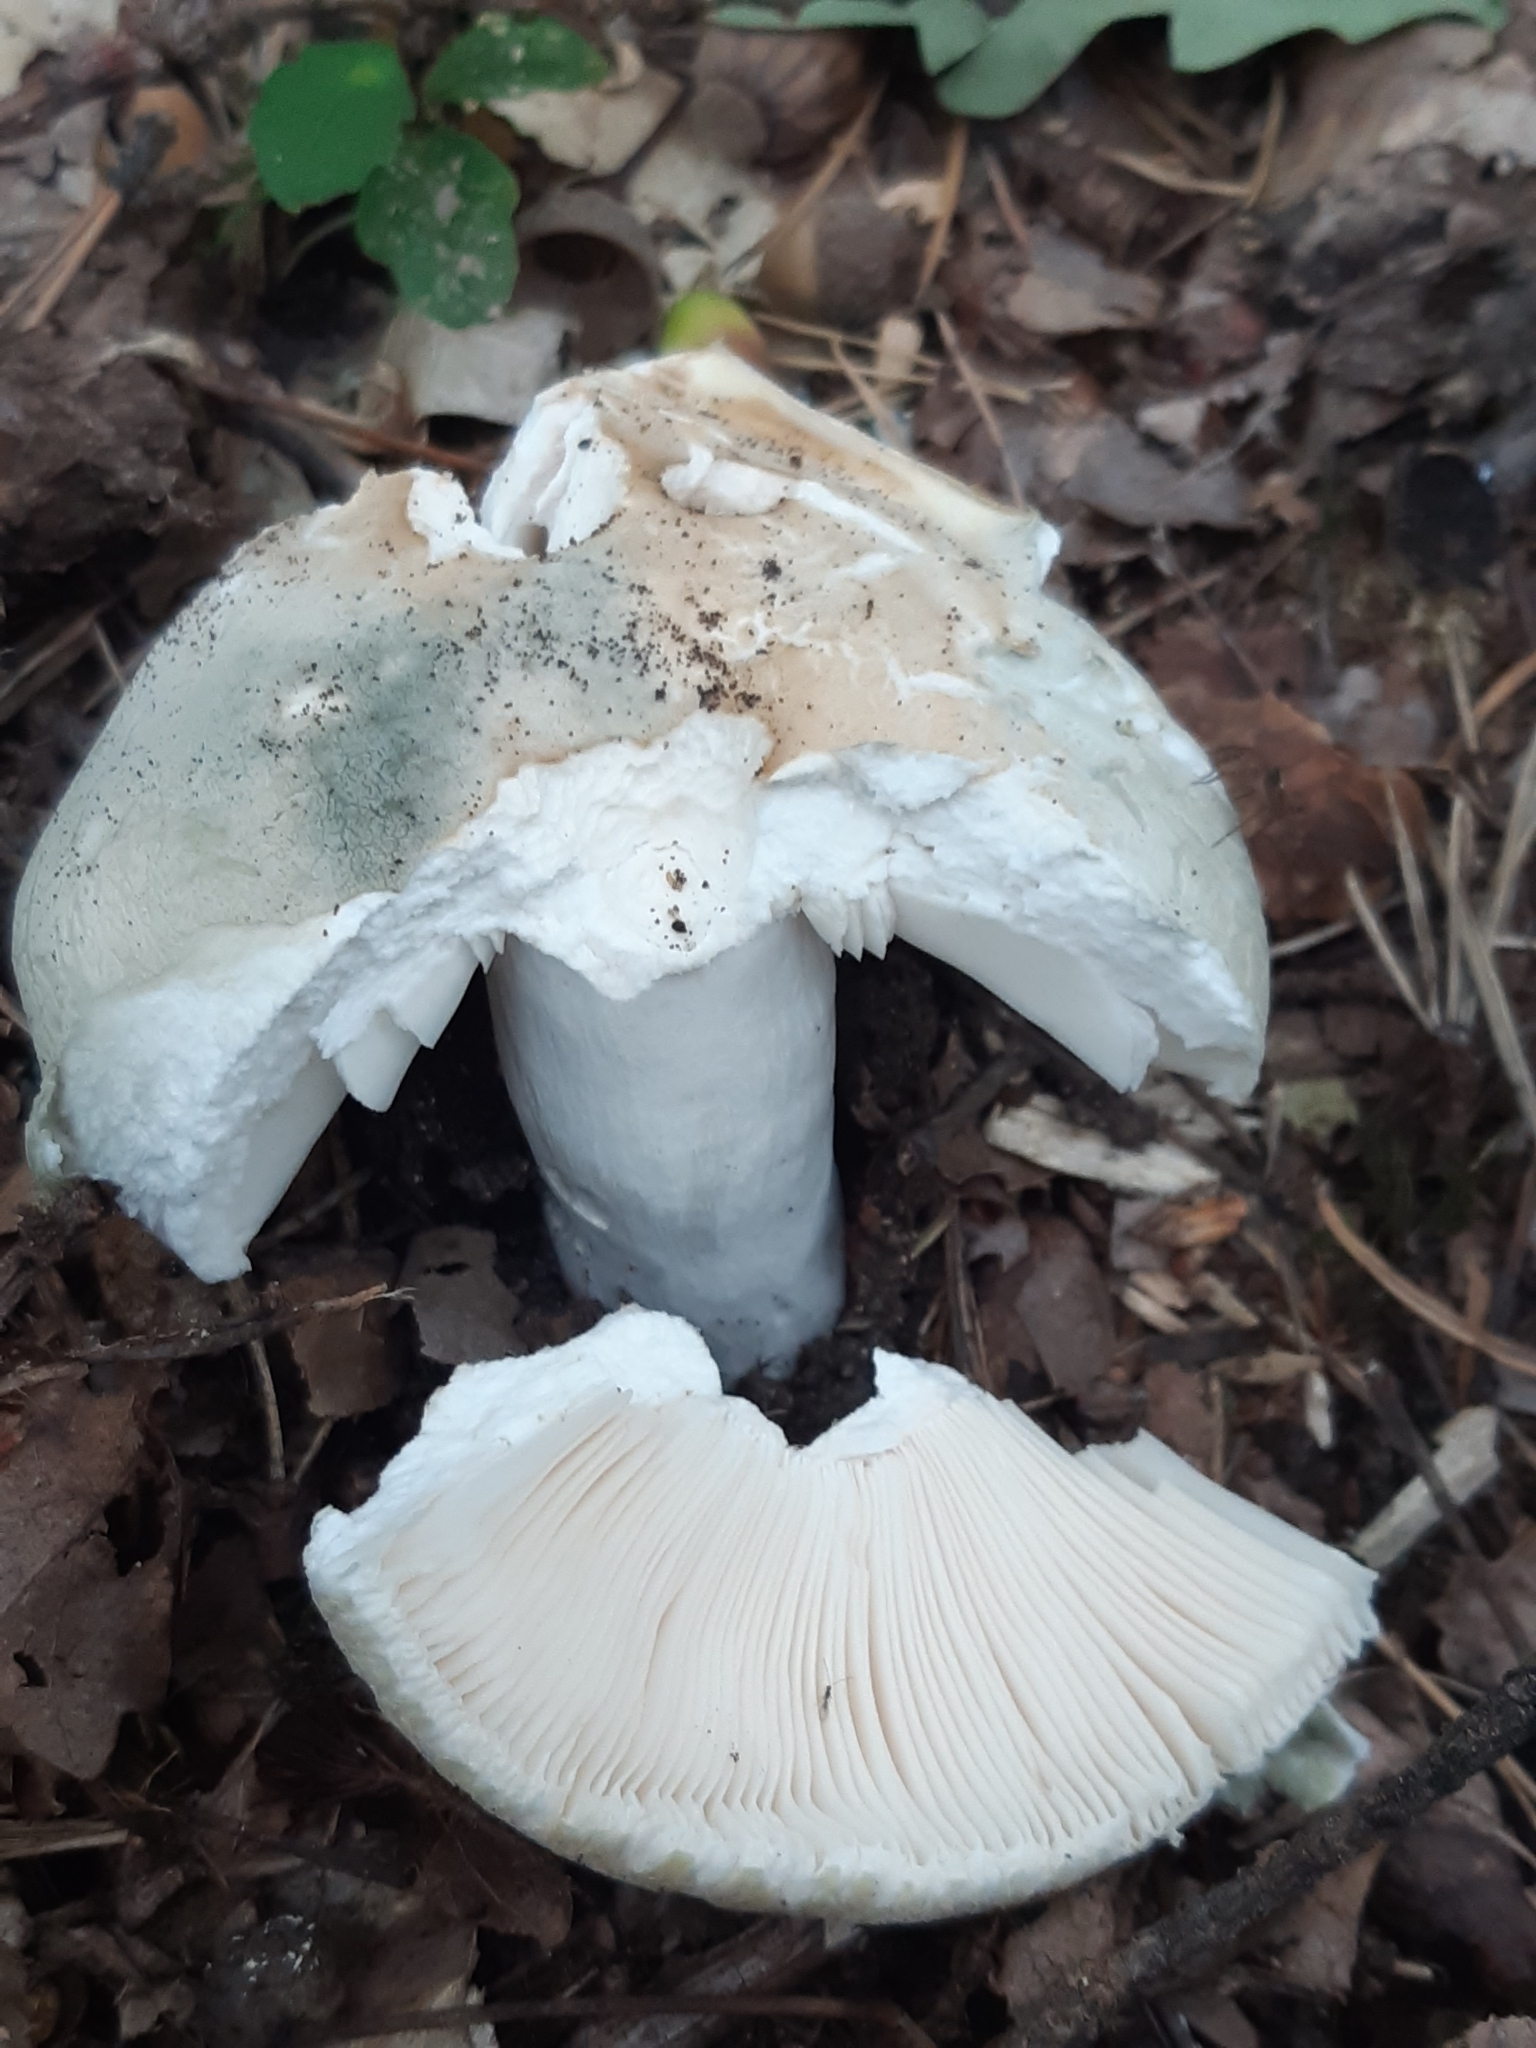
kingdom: Fungi
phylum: Basidiomycota
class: Agaricomycetes
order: Russulales
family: Russulaceae
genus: Russula
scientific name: Russula virescens
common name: Greencracked brittlegill
